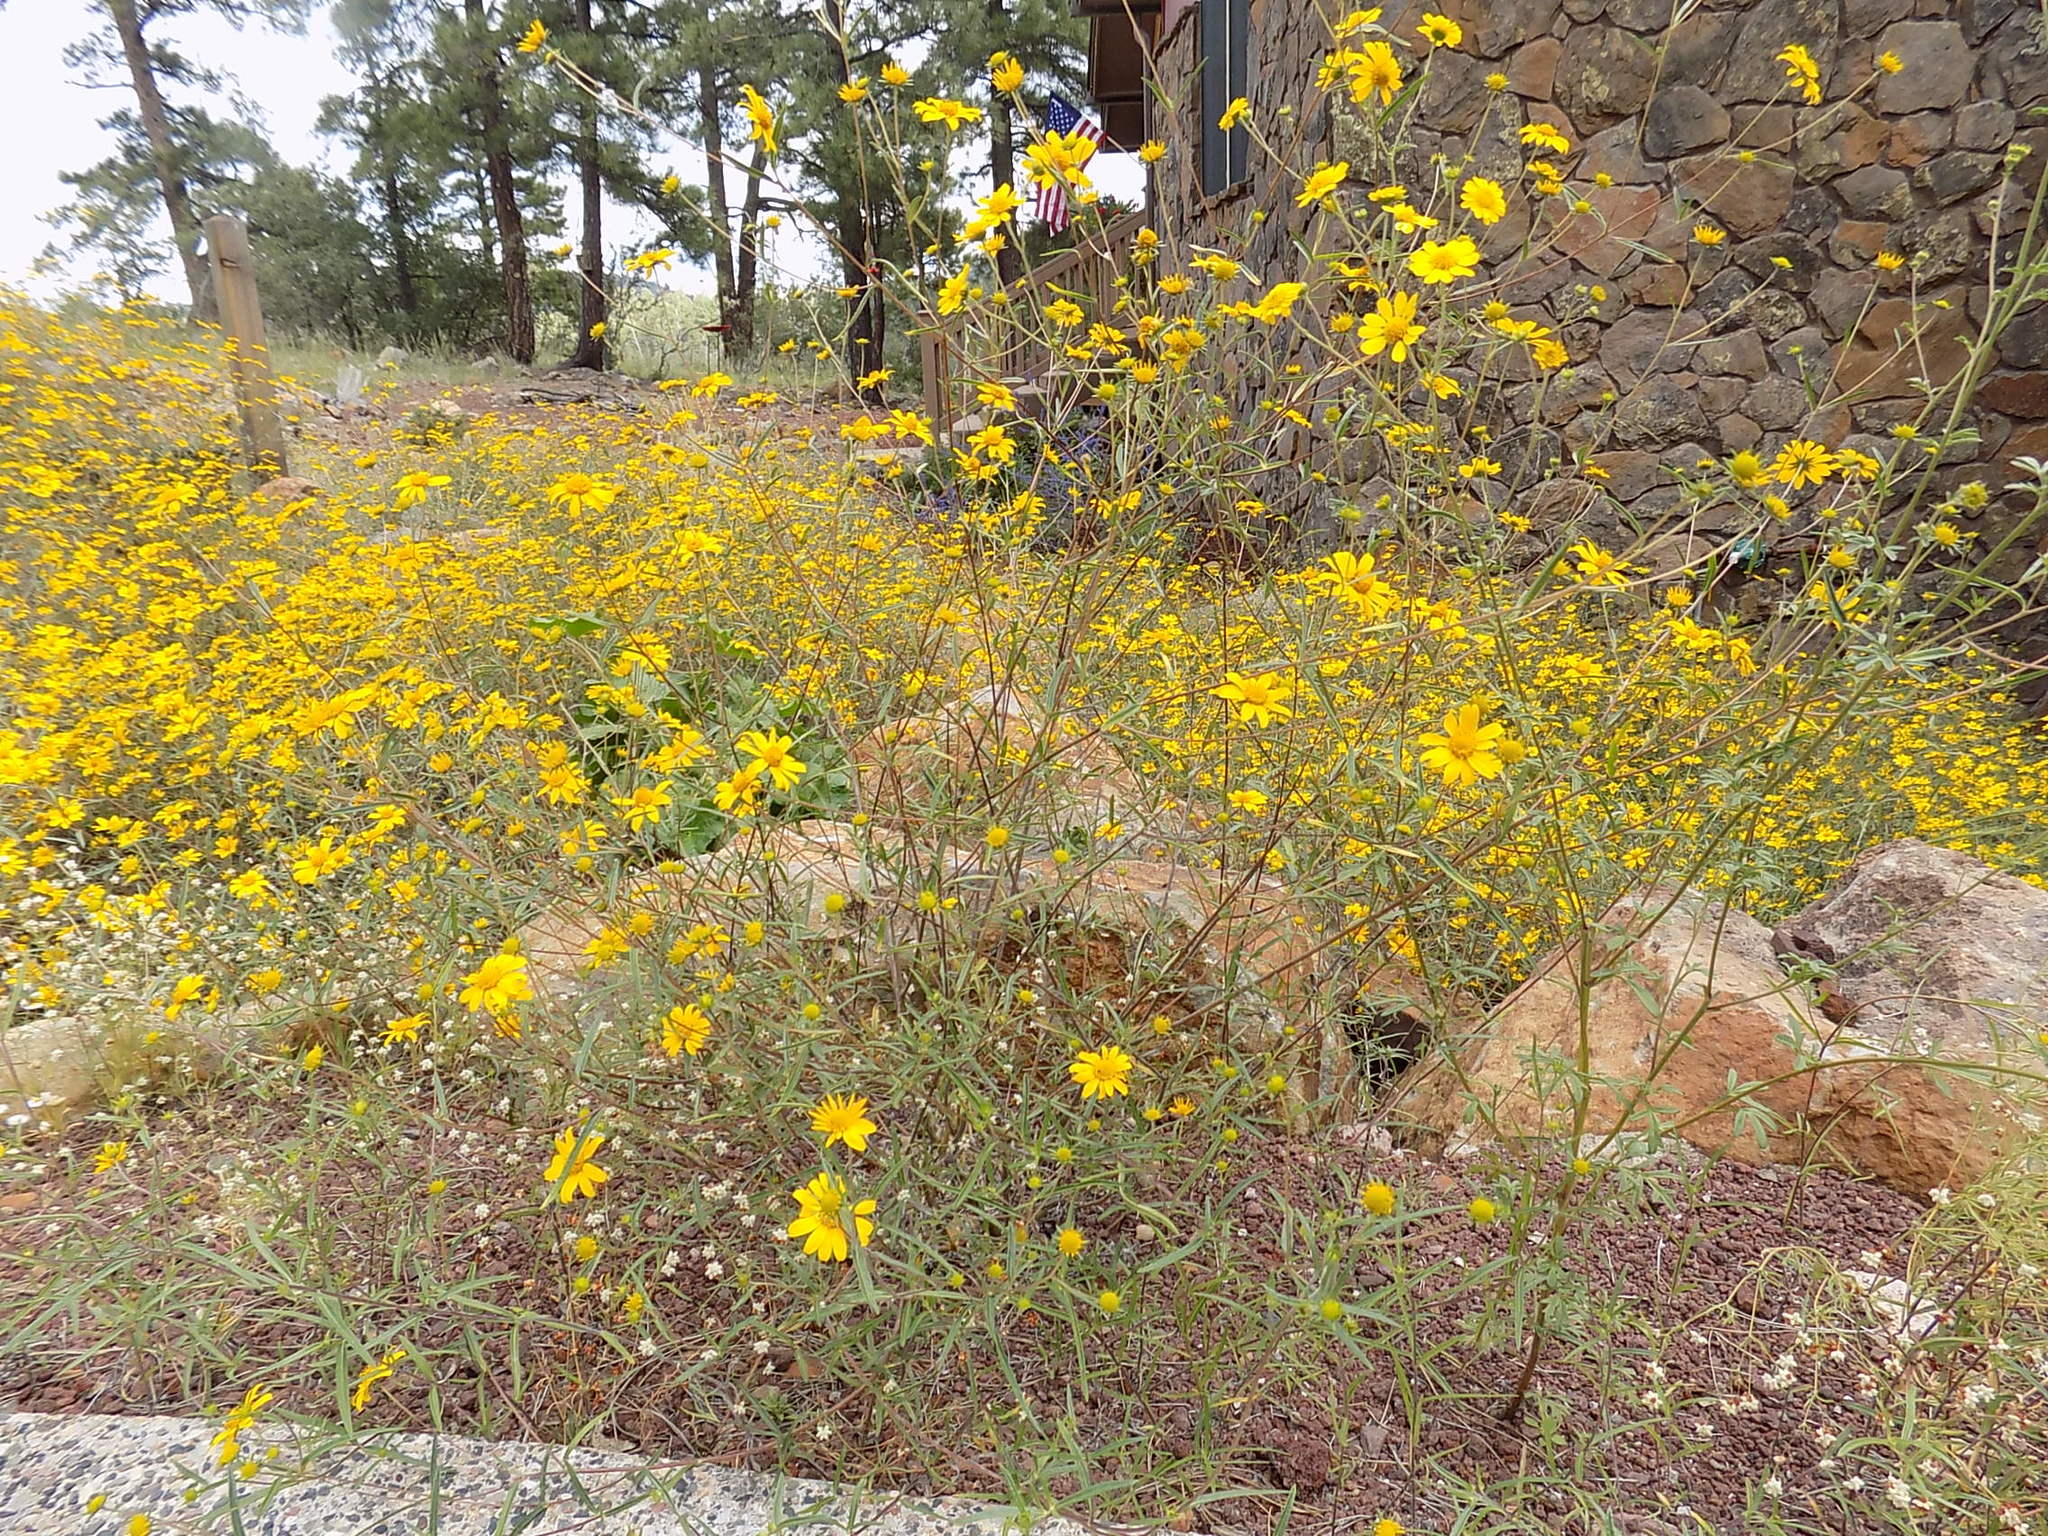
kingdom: Plantae
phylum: Tracheophyta
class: Magnoliopsida
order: Asterales
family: Asteraceae
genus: Heliomeris
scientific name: Heliomeris multiflora
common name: Showy goldeneye
